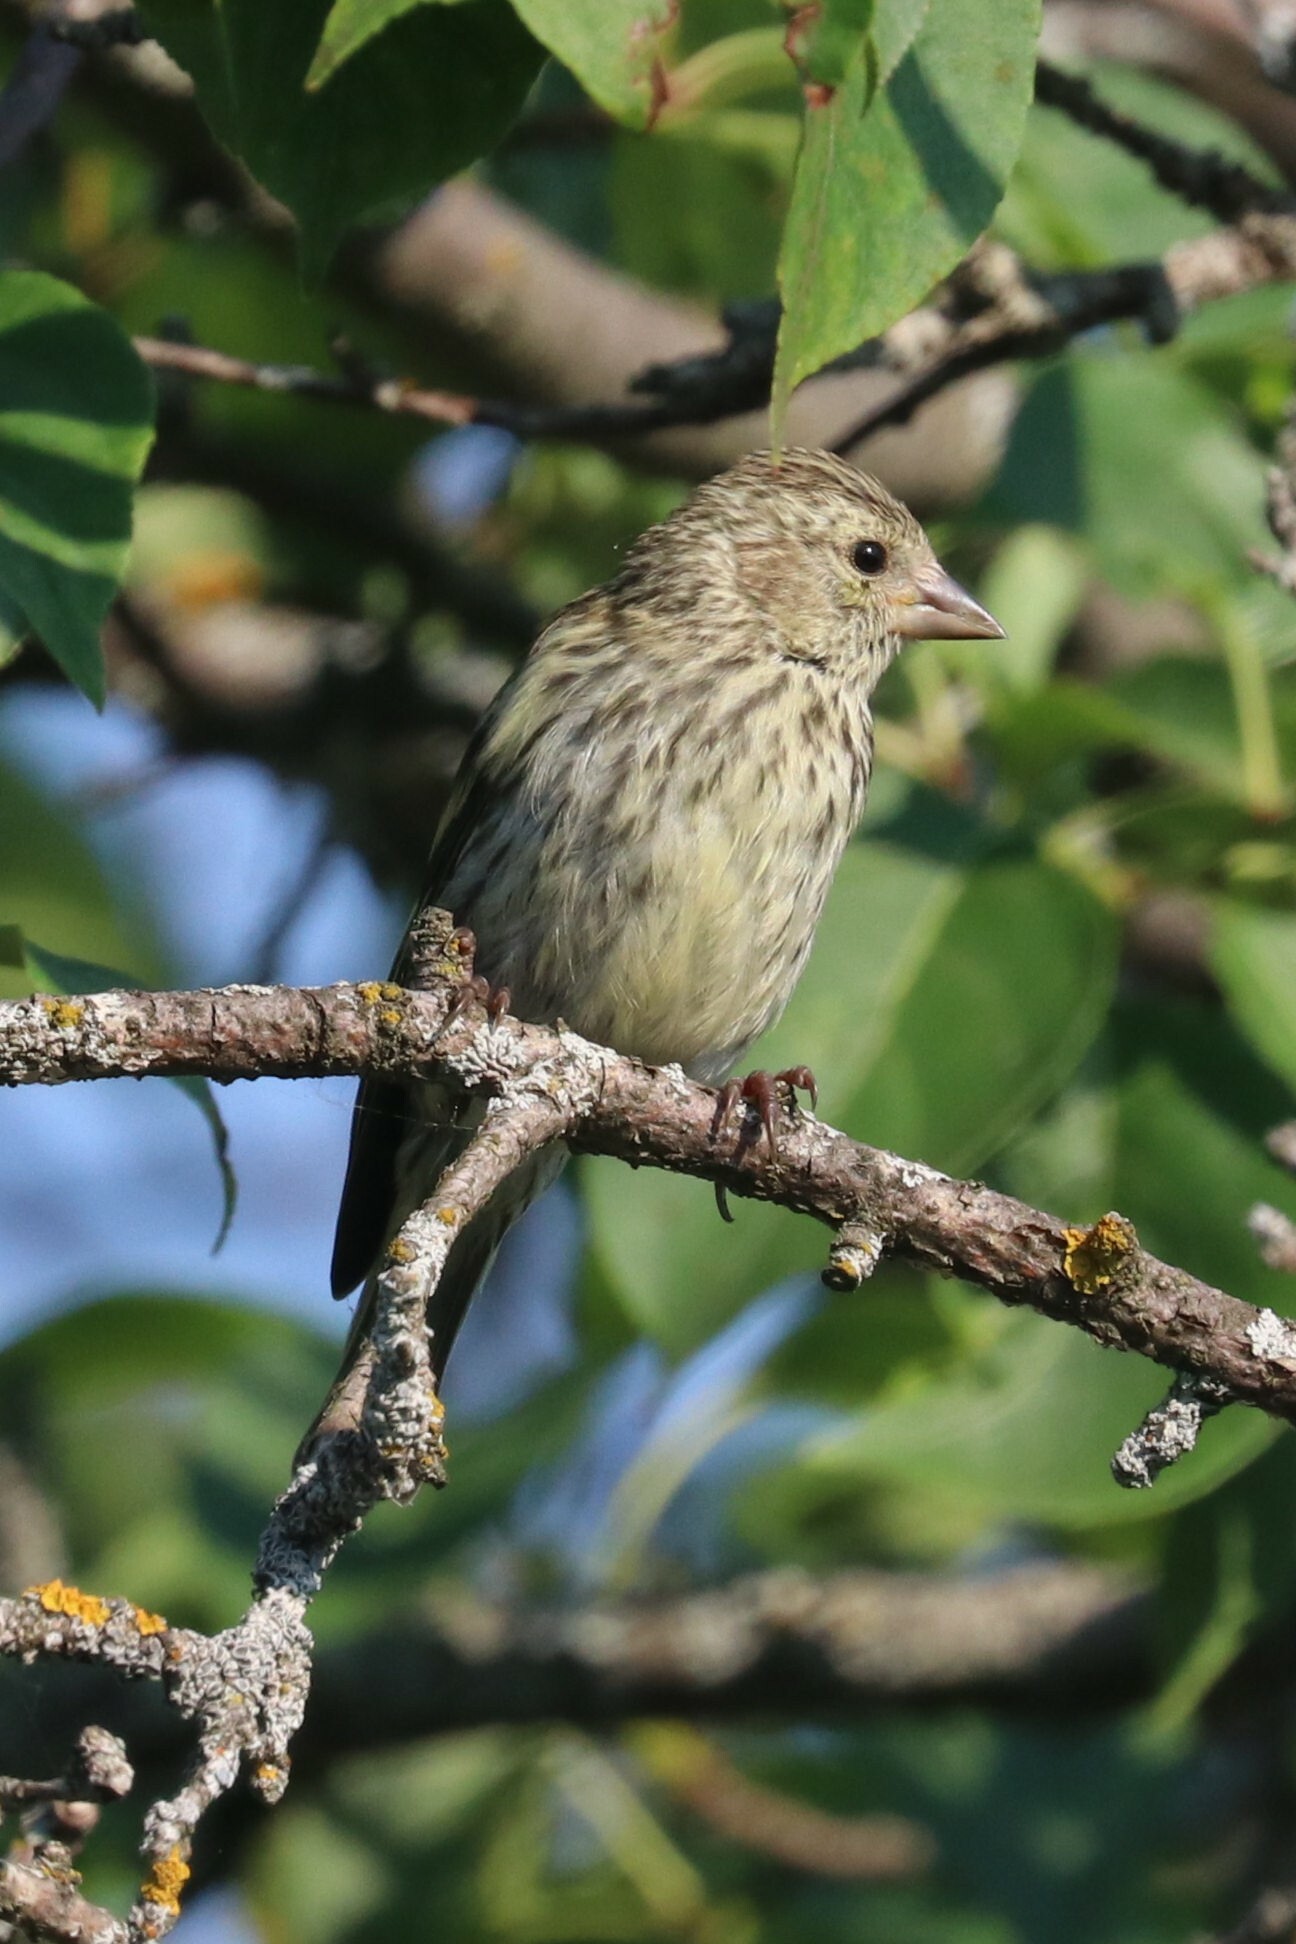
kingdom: Animalia
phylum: Chordata
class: Aves
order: Passeriformes
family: Fringillidae
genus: Spinus
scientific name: Spinus spinus
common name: Eurasian siskin
